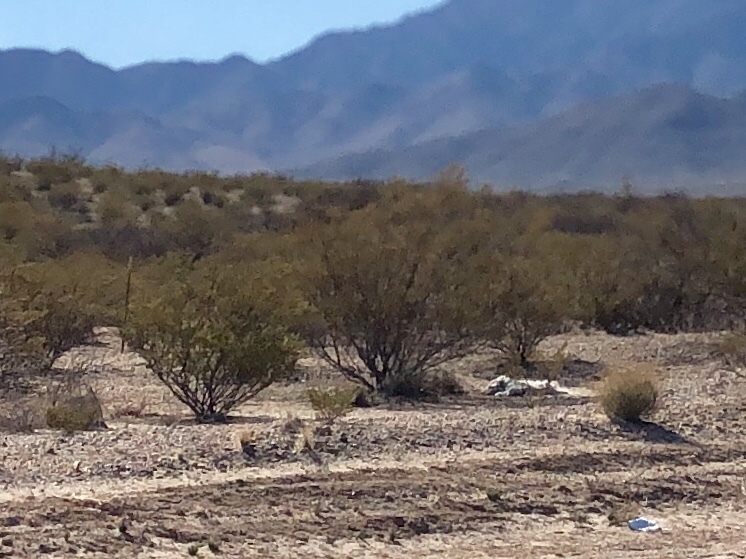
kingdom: Plantae
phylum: Tracheophyta
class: Magnoliopsida
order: Zygophyllales
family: Zygophyllaceae
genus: Larrea
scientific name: Larrea tridentata
